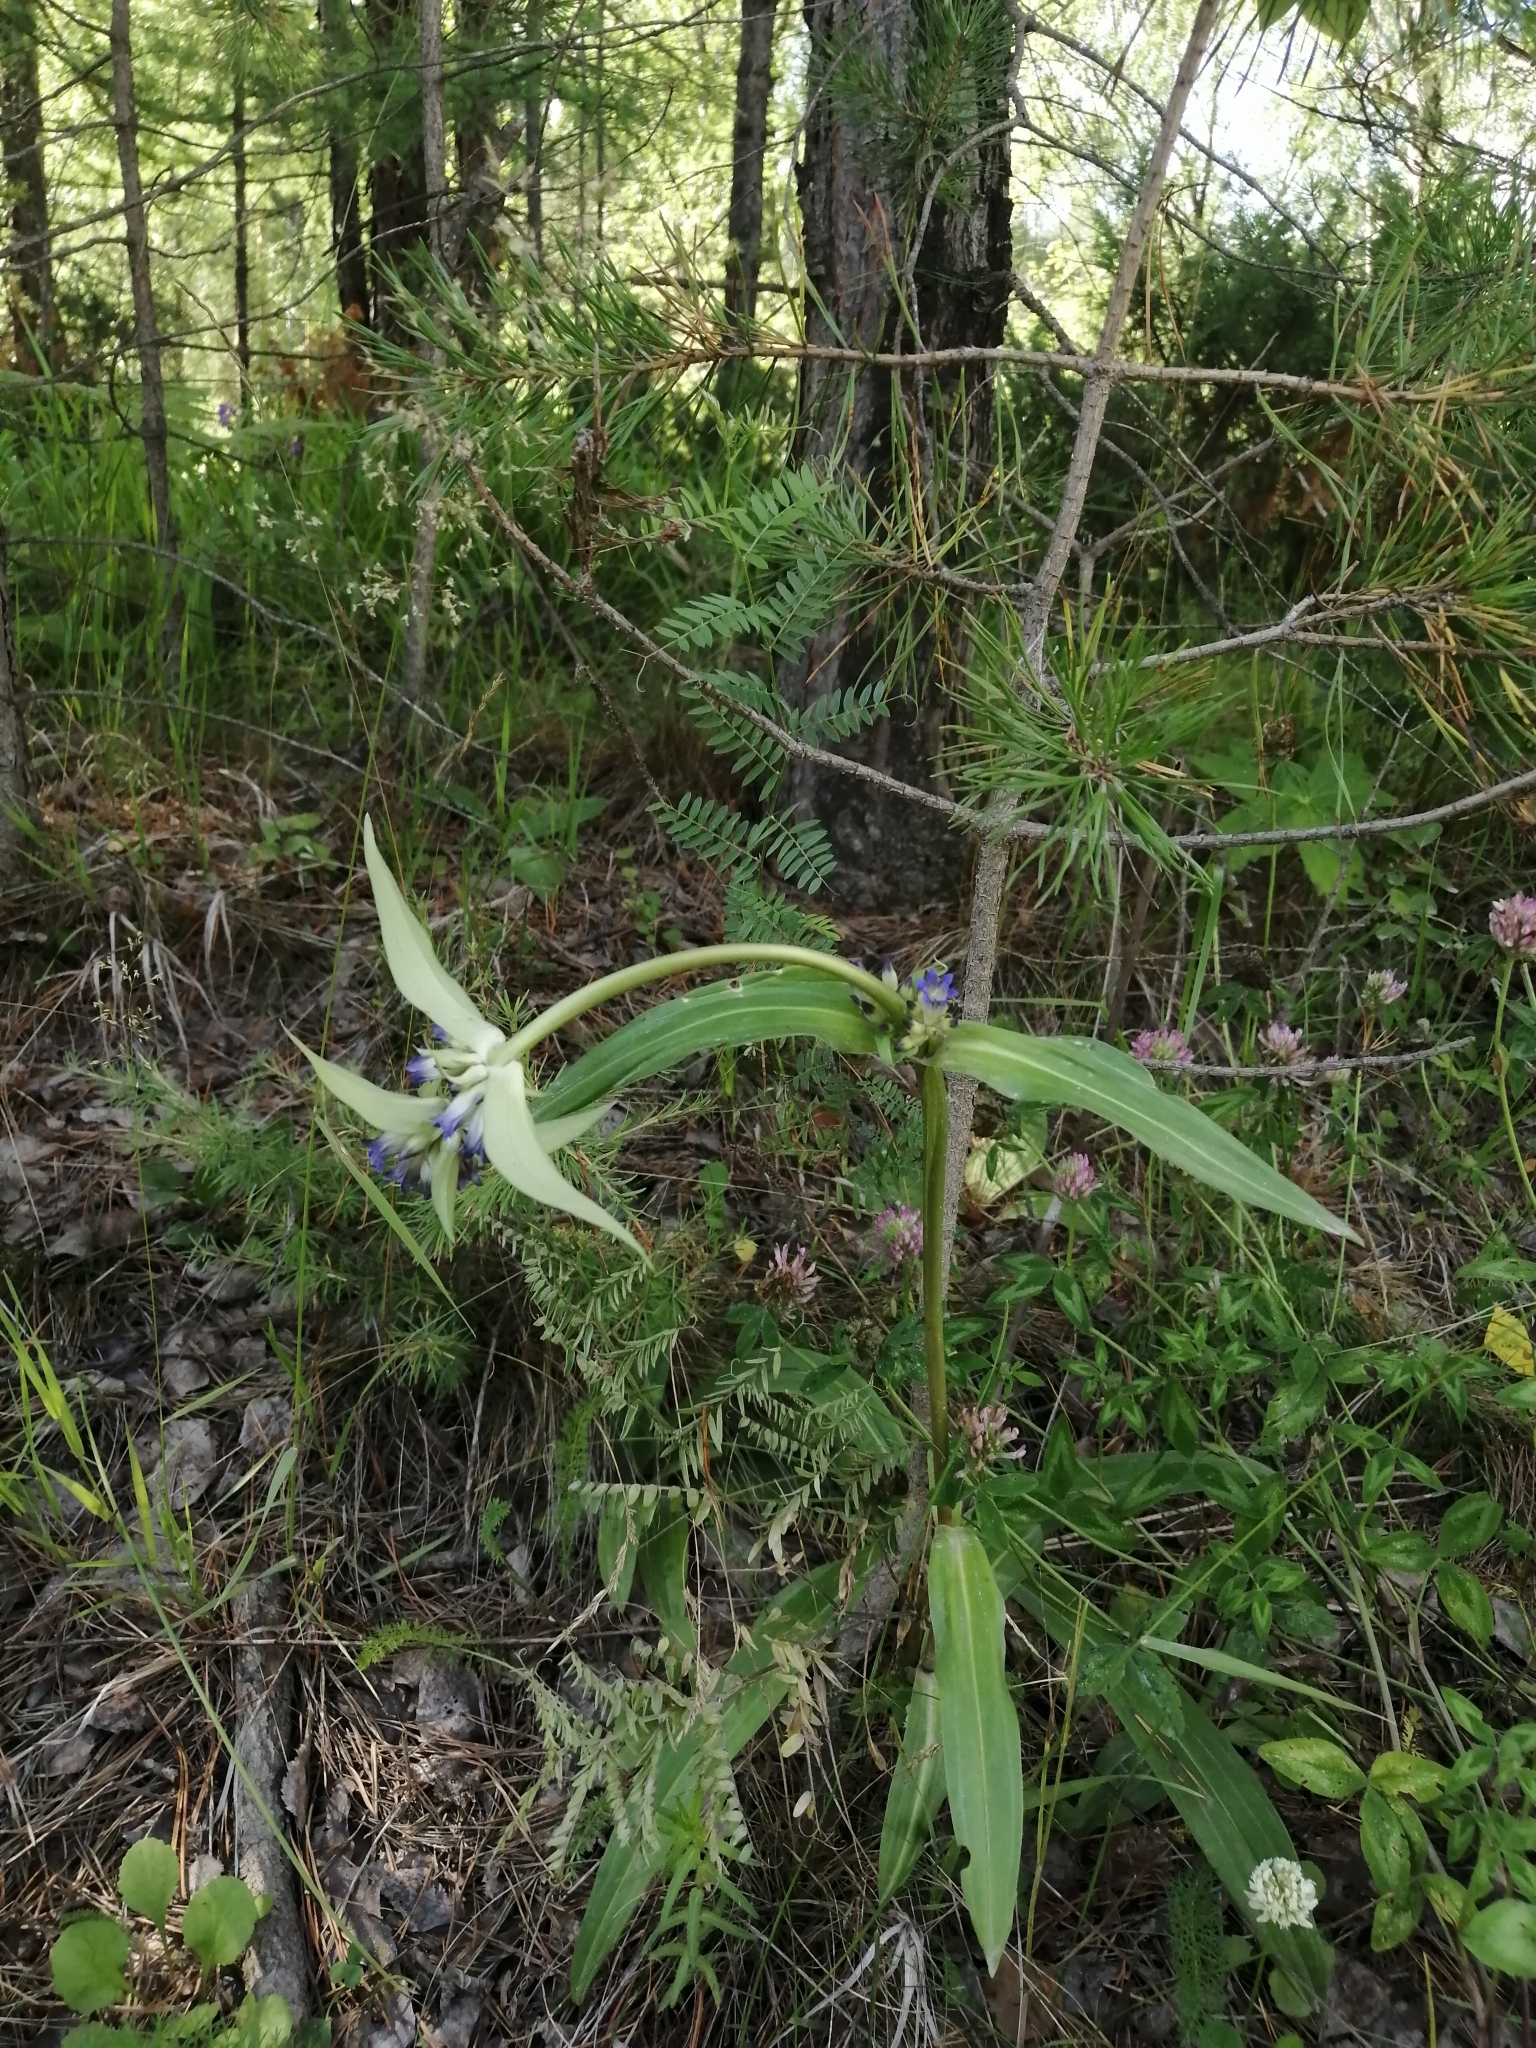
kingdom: Plantae
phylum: Tracheophyta
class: Magnoliopsida
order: Gentianales
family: Gentianaceae
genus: Gentiana
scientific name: Gentiana macrophylla
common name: Large-leaf gentian
